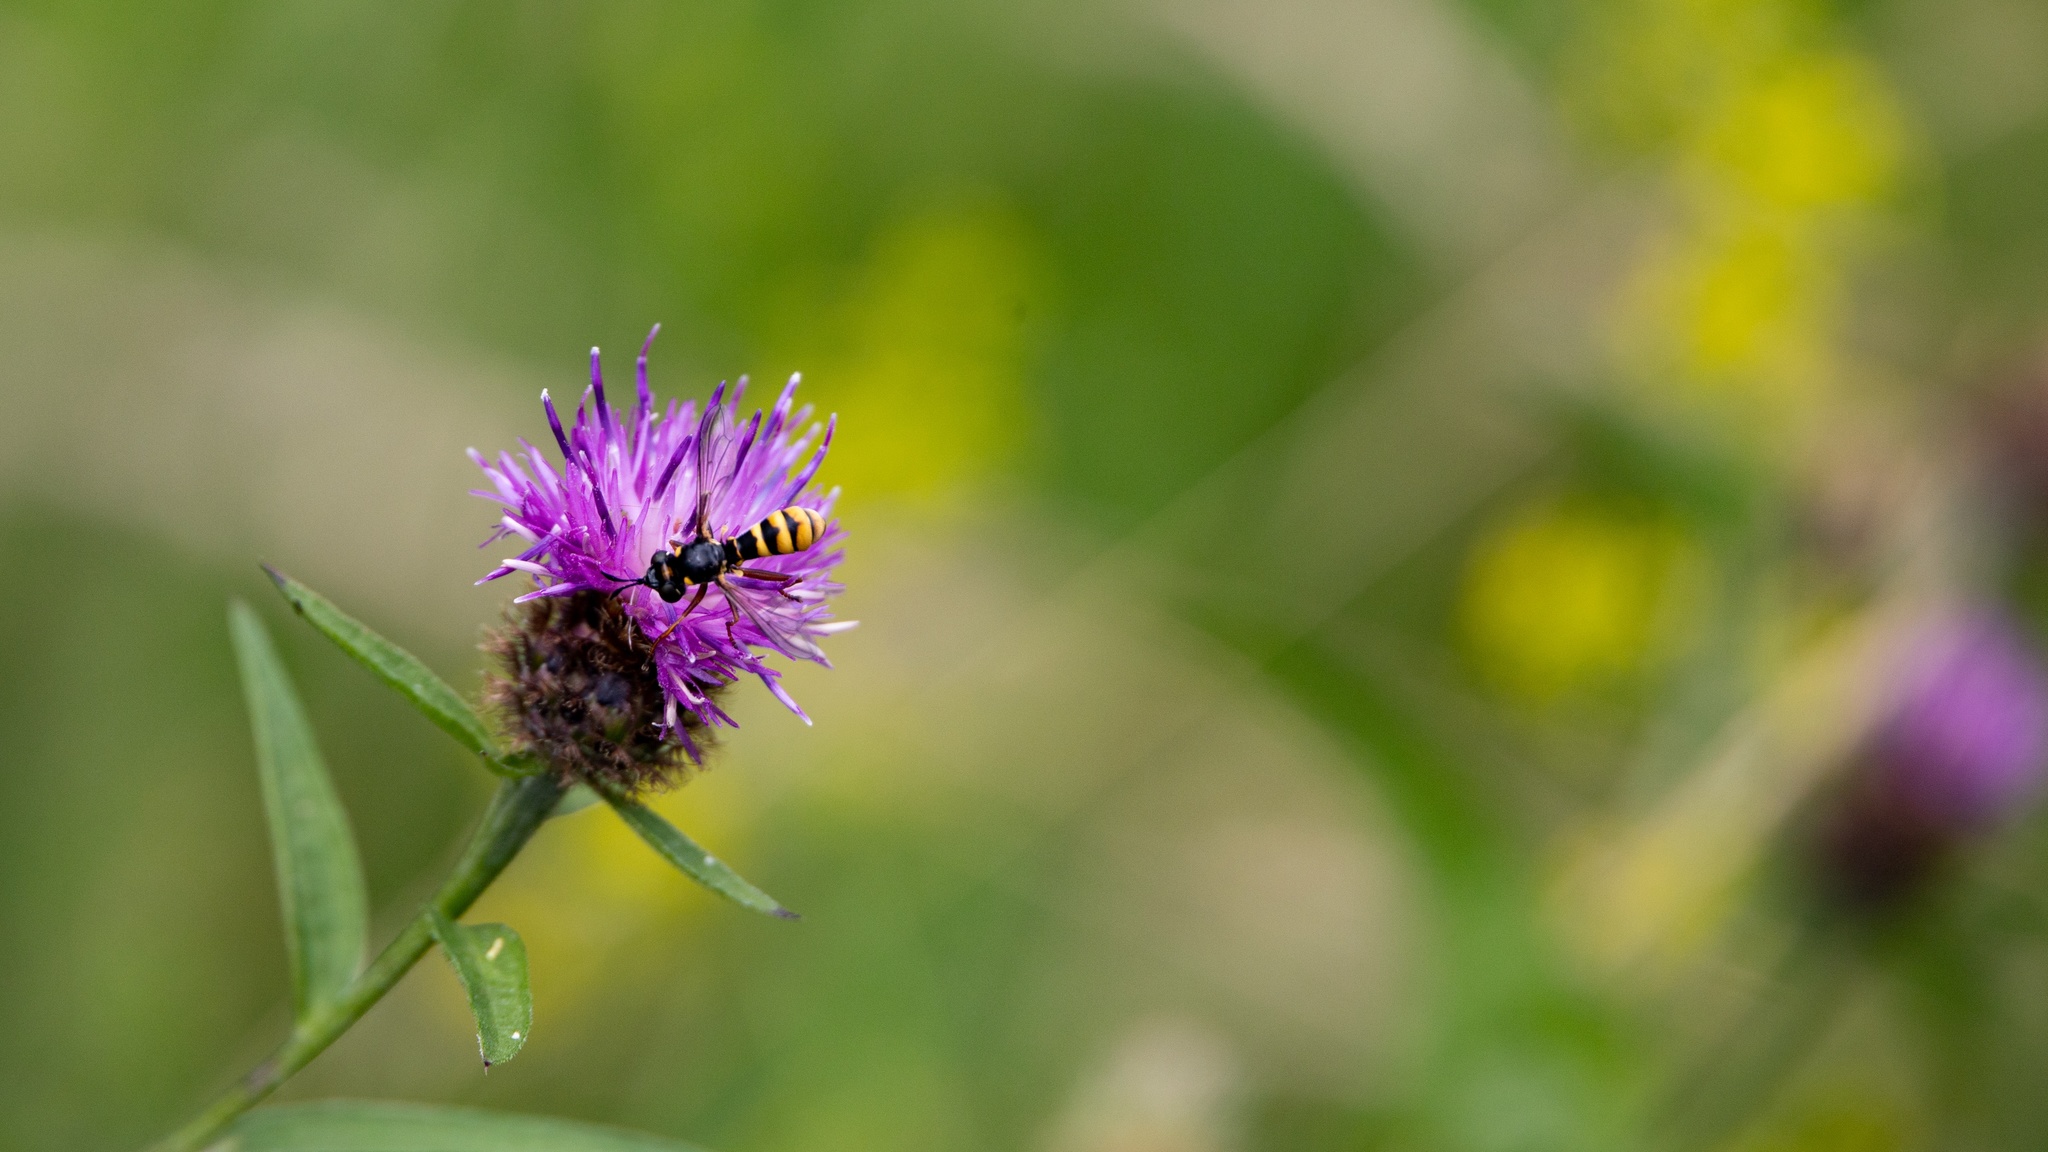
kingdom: Animalia
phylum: Arthropoda
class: Insecta
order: Diptera
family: Conopidae
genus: Conops
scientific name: Conops quadrifasciatus
